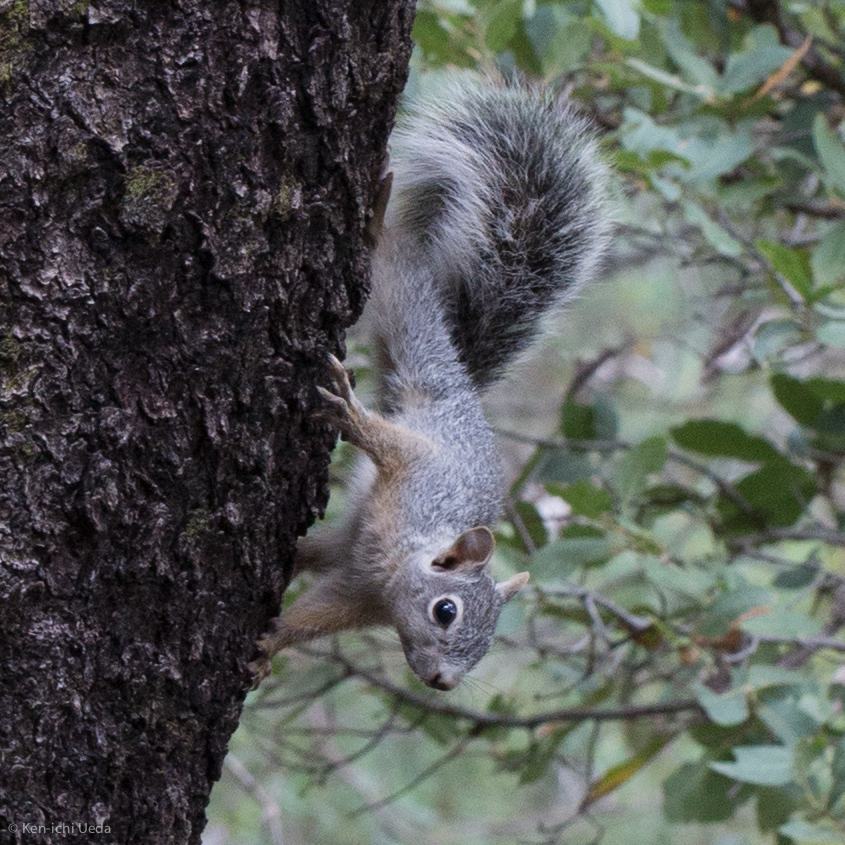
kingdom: Animalia
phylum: Chordata
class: Mammalia
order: Rodentia
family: Sciuridae
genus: Sciurus
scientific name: Sciurus arizonensis
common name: Arizona gray squirrel
